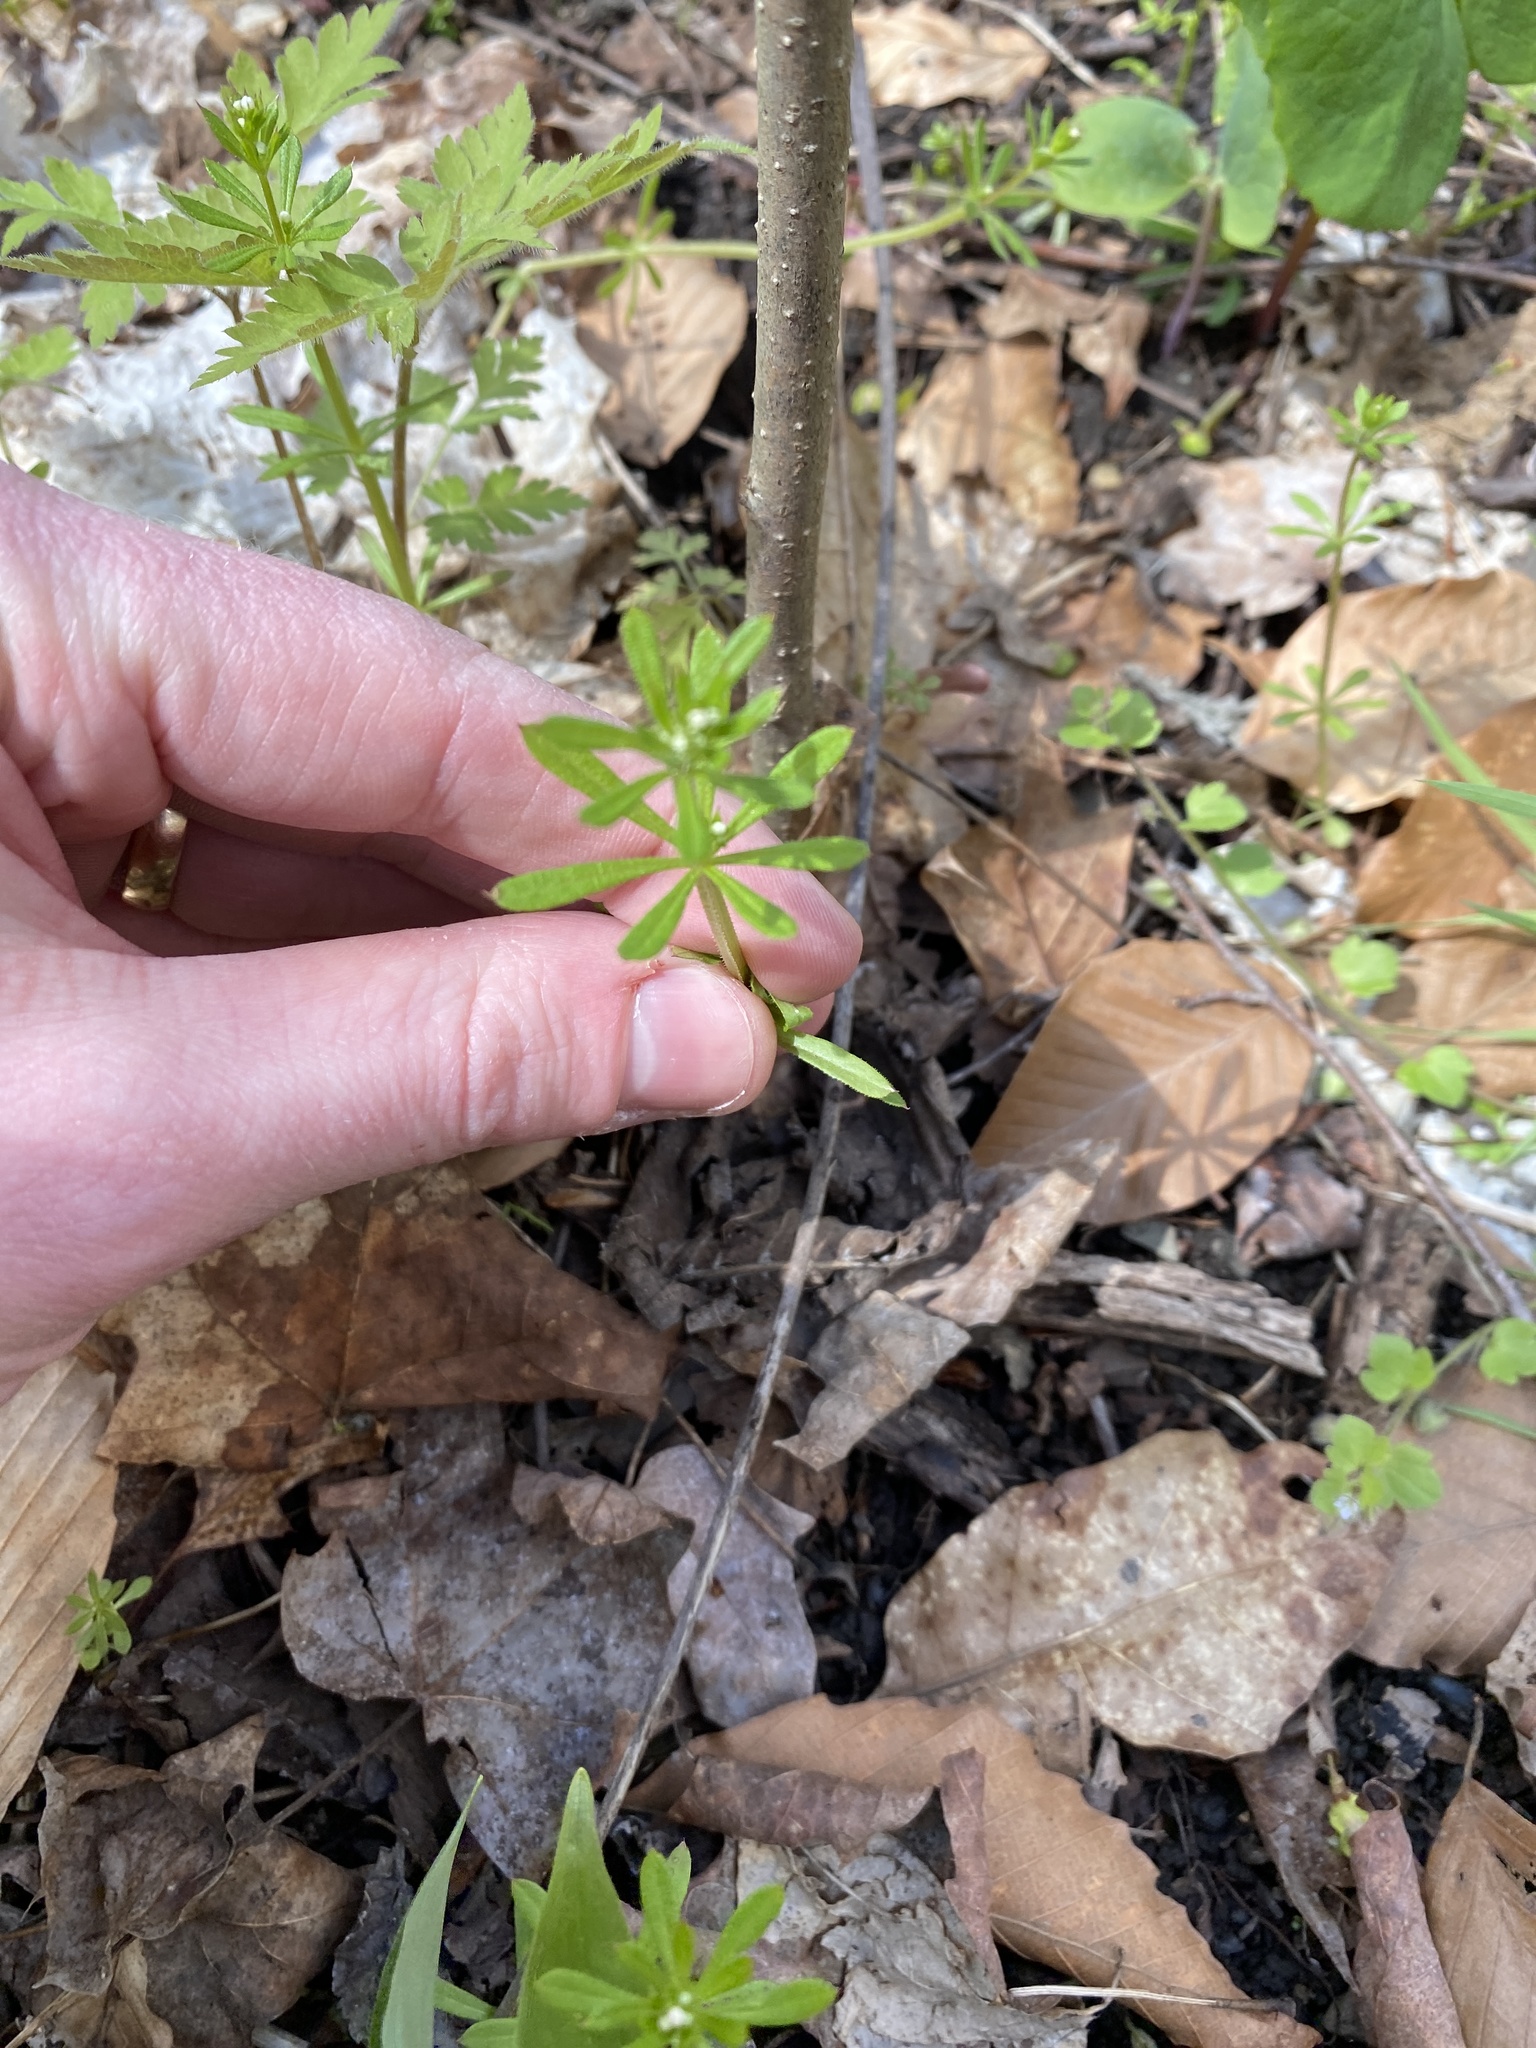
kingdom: Plantae
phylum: Tracheophyta
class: Magnoliopsida
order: Gentianales
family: Rubiaceae
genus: Galium
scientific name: Galium aparine
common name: Cleavers
